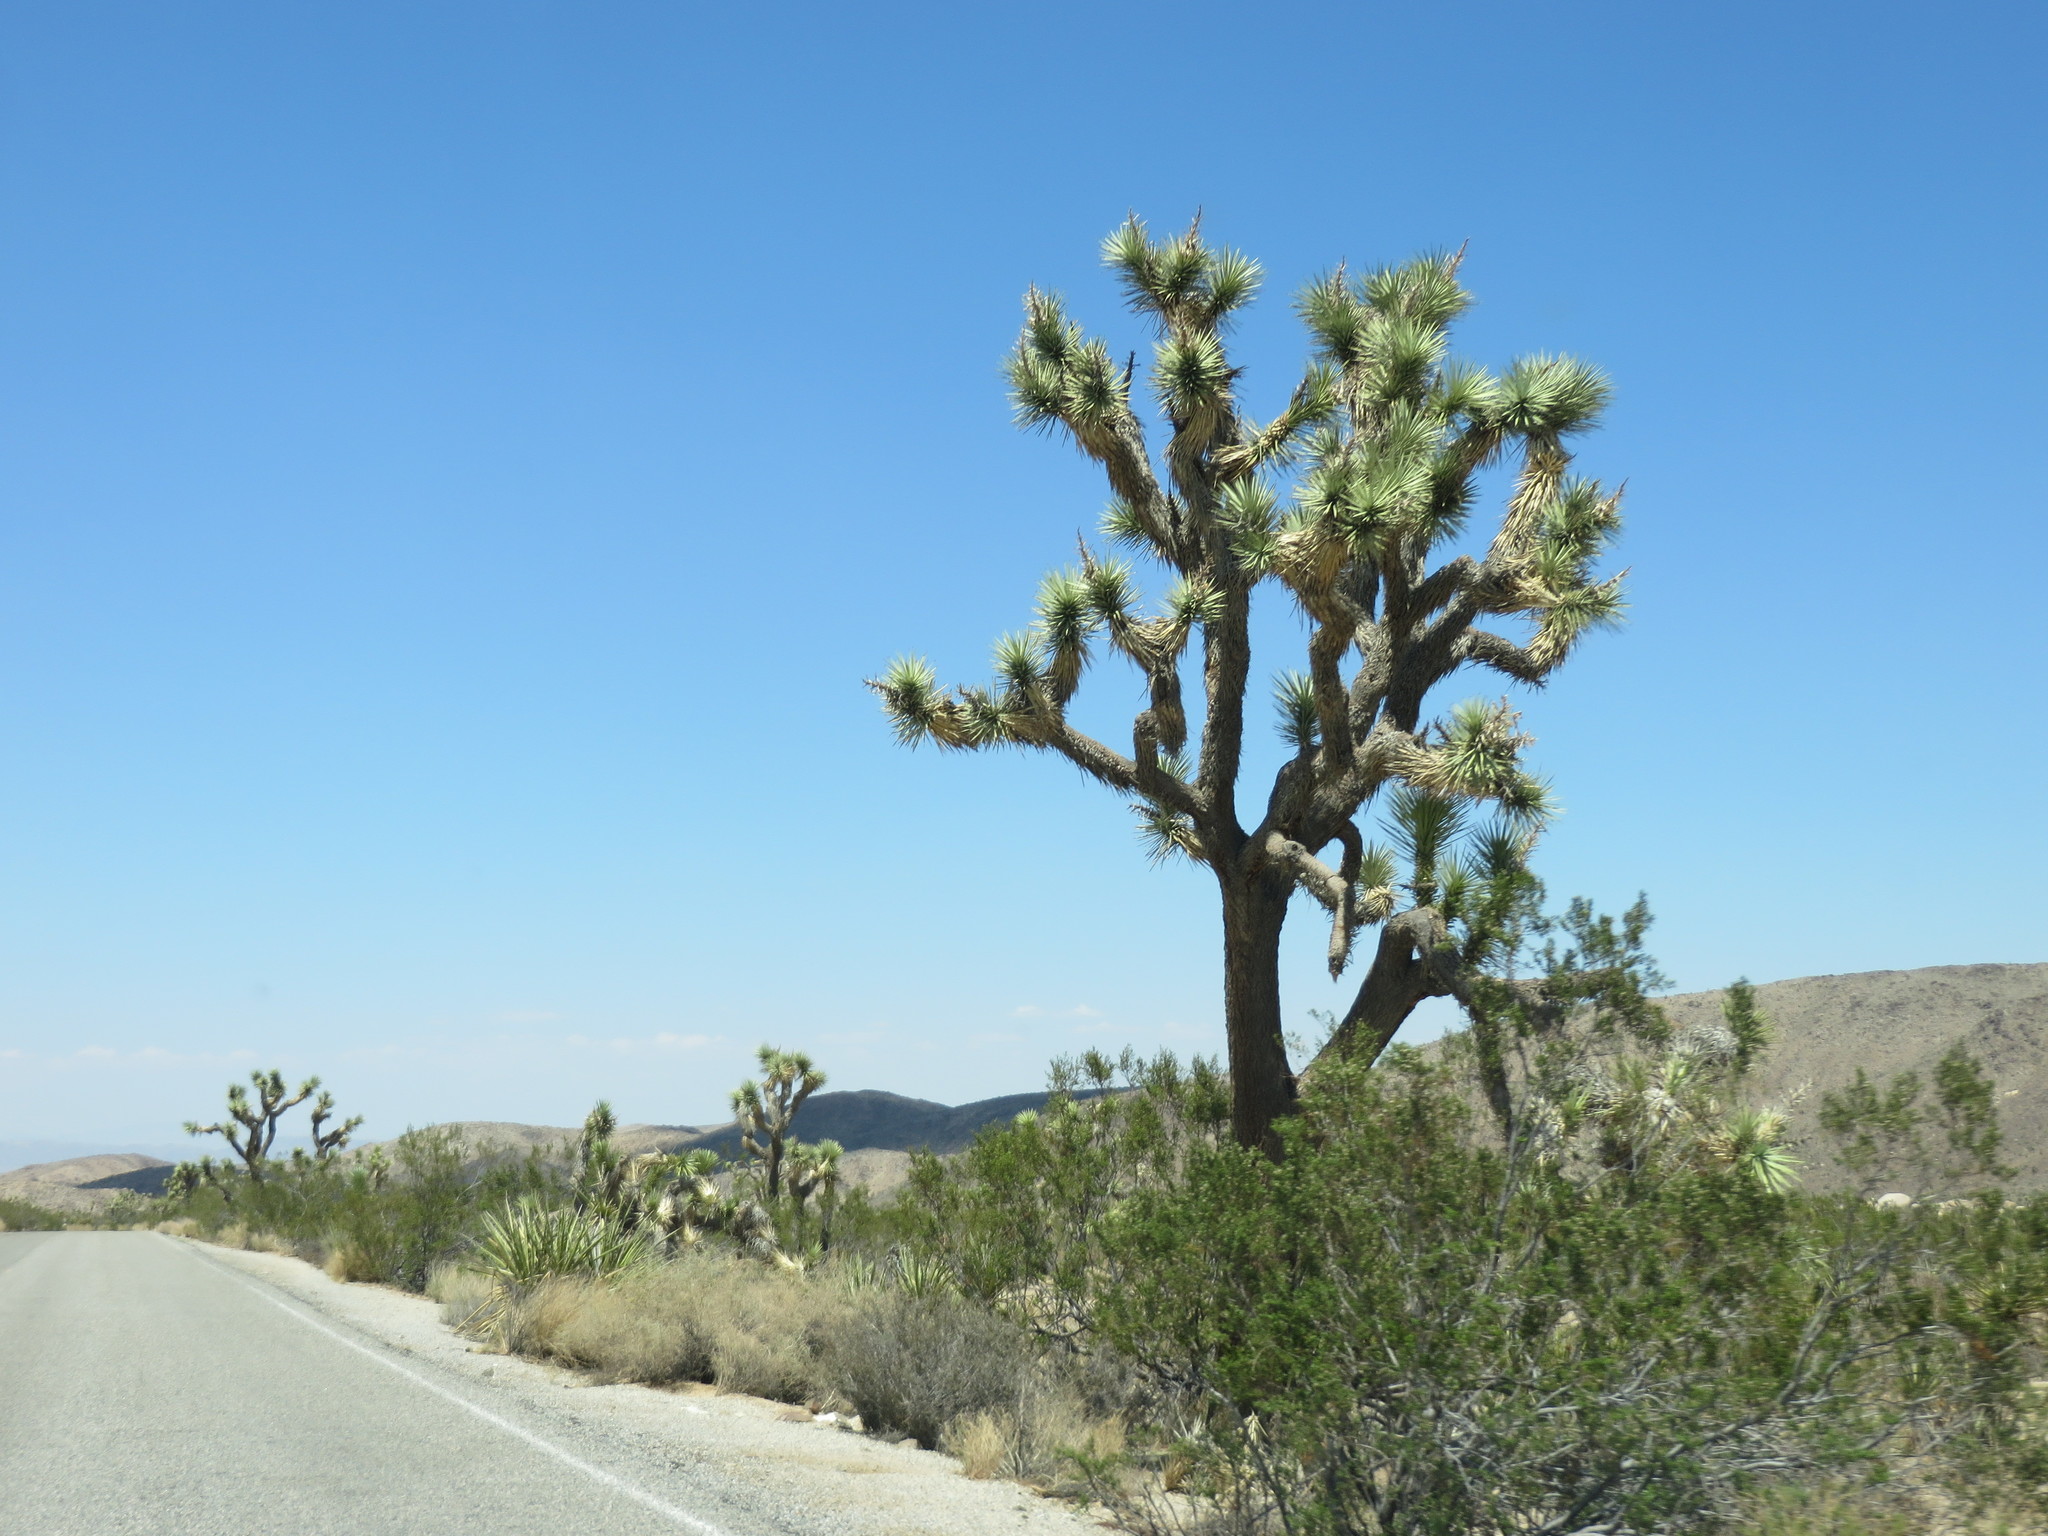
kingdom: Plantae
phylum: Tracheophyta
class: Liliopsida
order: Asparagales
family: Asparagaceae
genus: Yucca
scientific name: Yucca brevifolia
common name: Joshua tree
